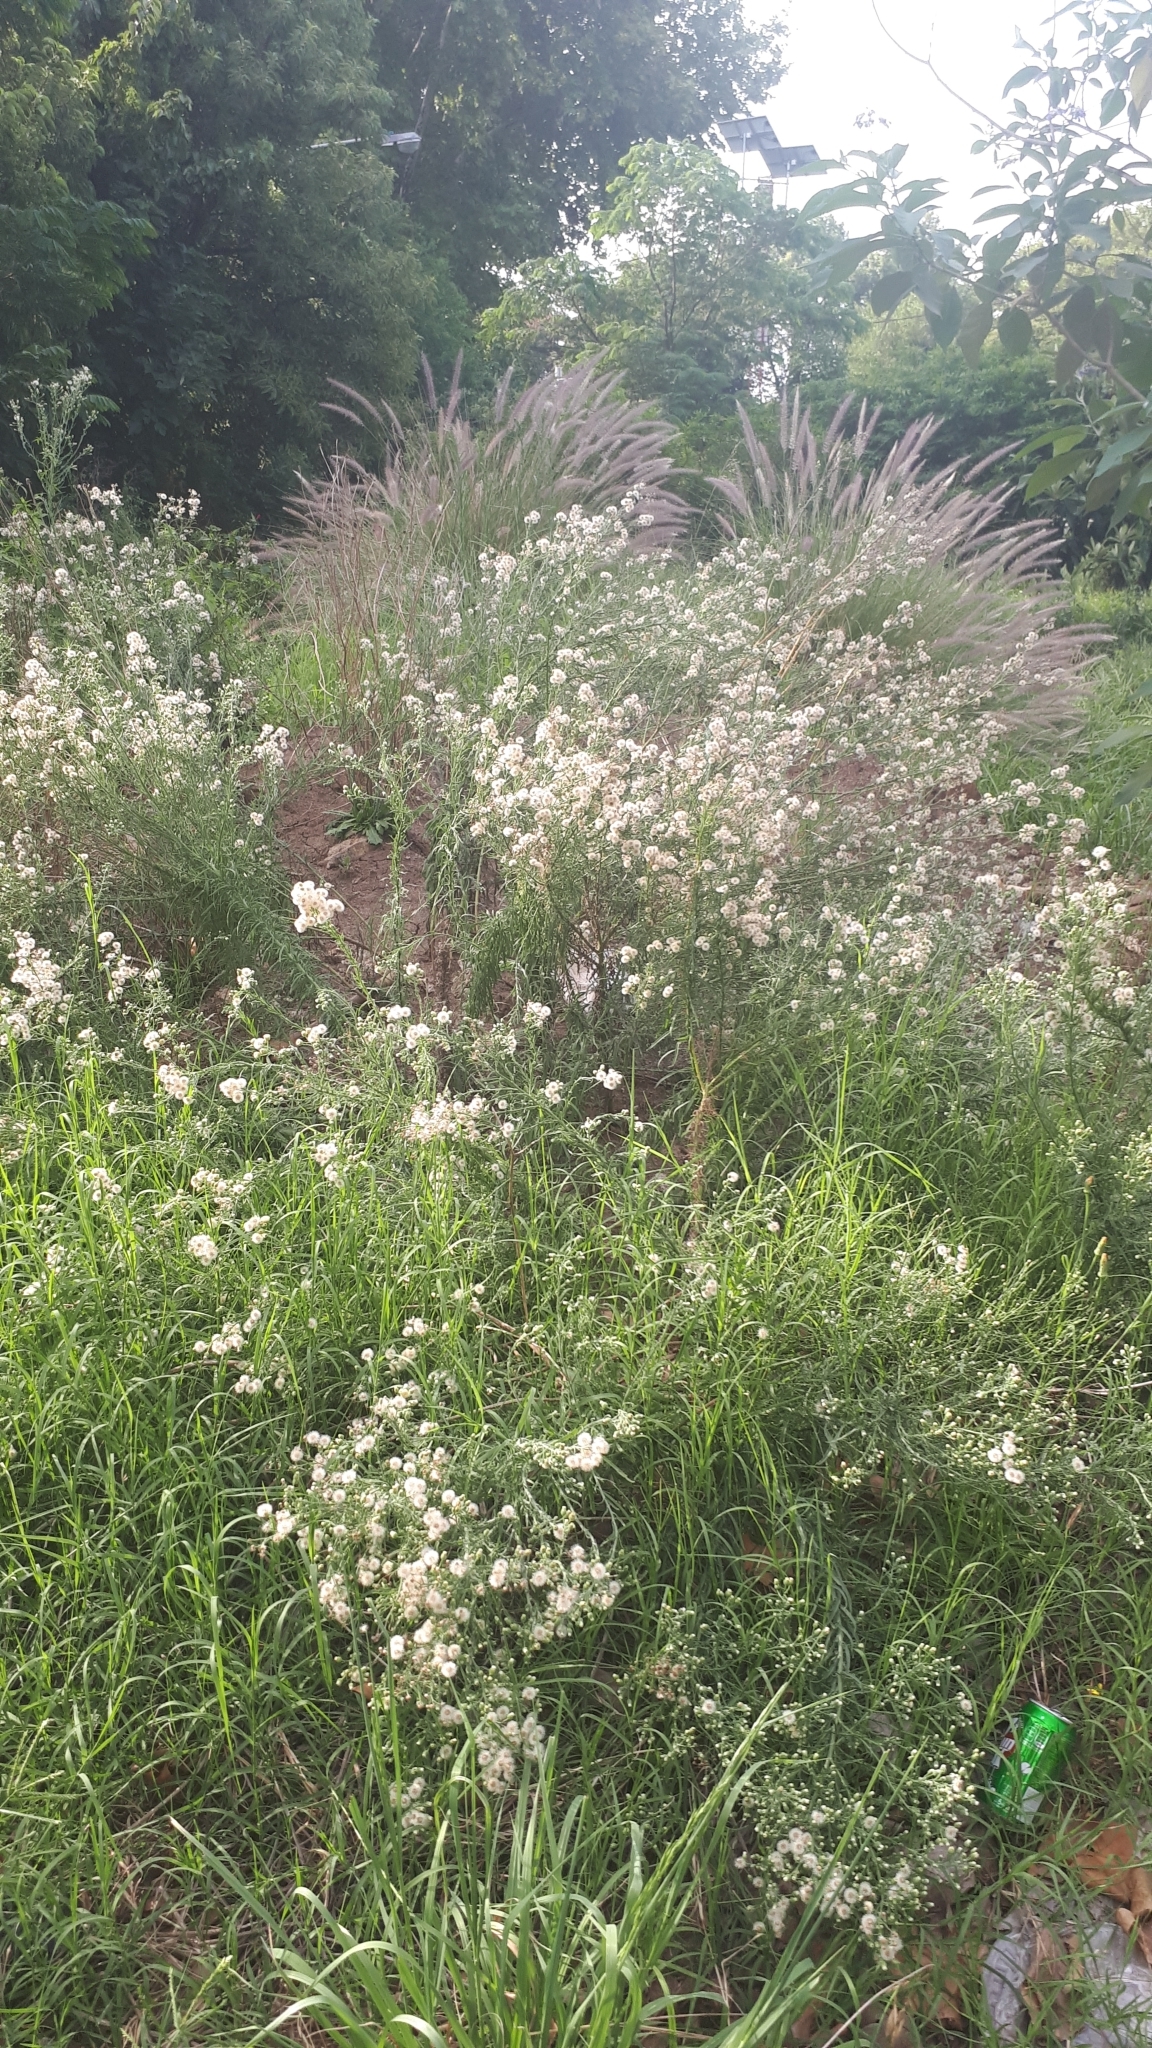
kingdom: Plantae
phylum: Tracheophyta
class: Magnoliopsida
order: Asterales
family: Asteraceae
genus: Erigeron
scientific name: Erigeron bonariensis
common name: Argentine fleabane
